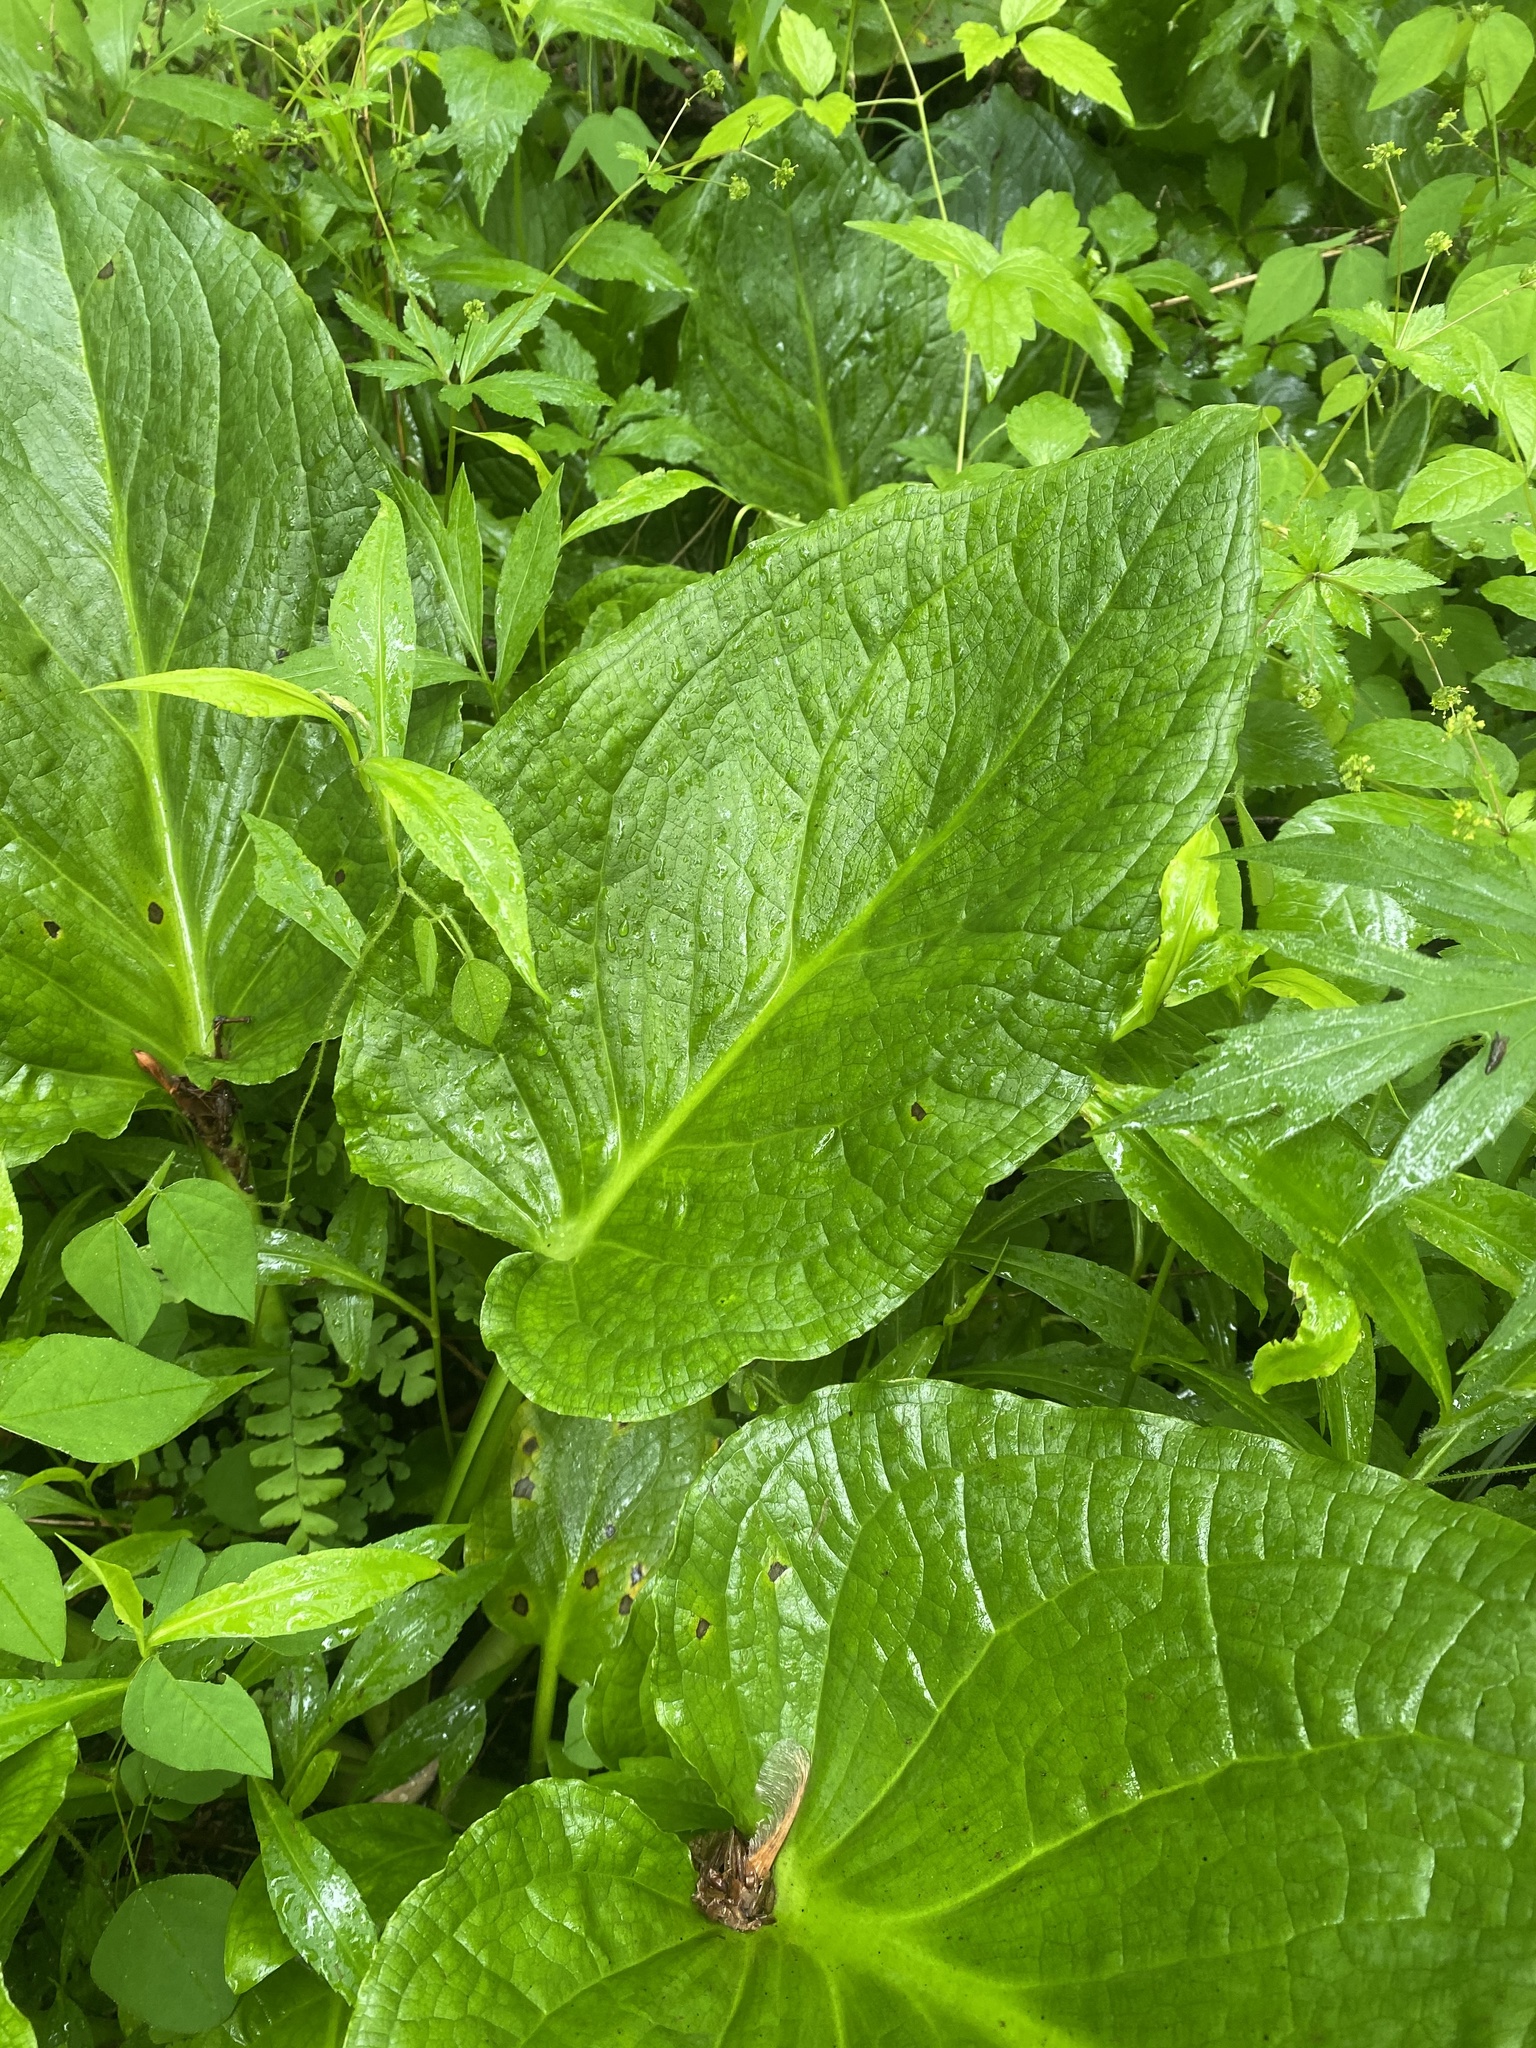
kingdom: Plantae
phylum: Tracheophyta
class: Liliopsida
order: Alismatales
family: Araceae
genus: Symplocarpus
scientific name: Symplocarpus foetidus
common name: Eastern skunk cabbage
